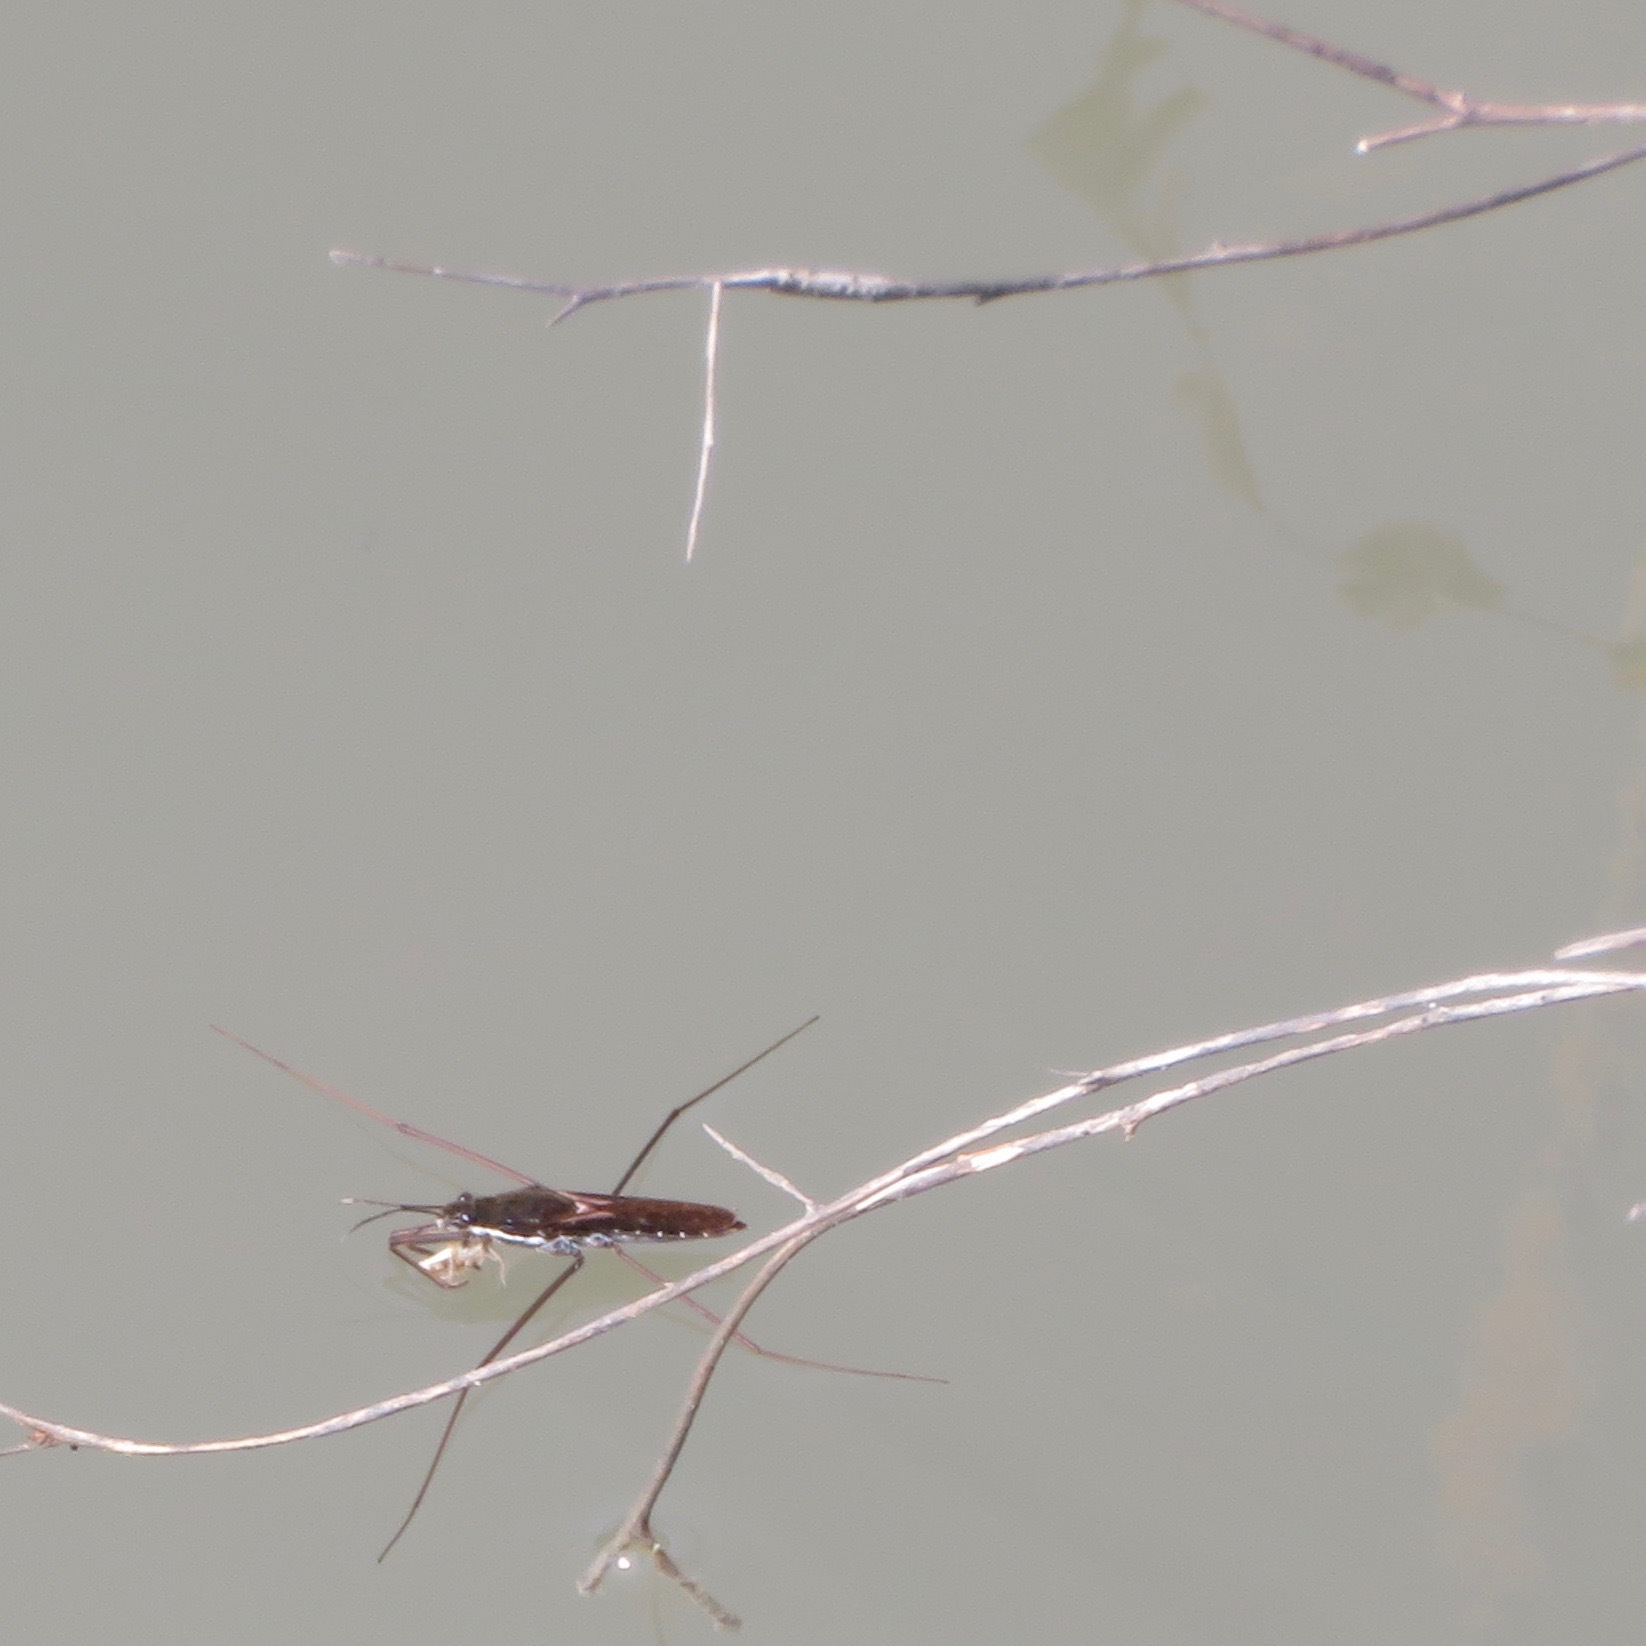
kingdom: Animalia
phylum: Arthropoda
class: Insecta
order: Hemiptera
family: Gerridae
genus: Aquarius
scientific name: Aquarius remigis
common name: Common water strider
